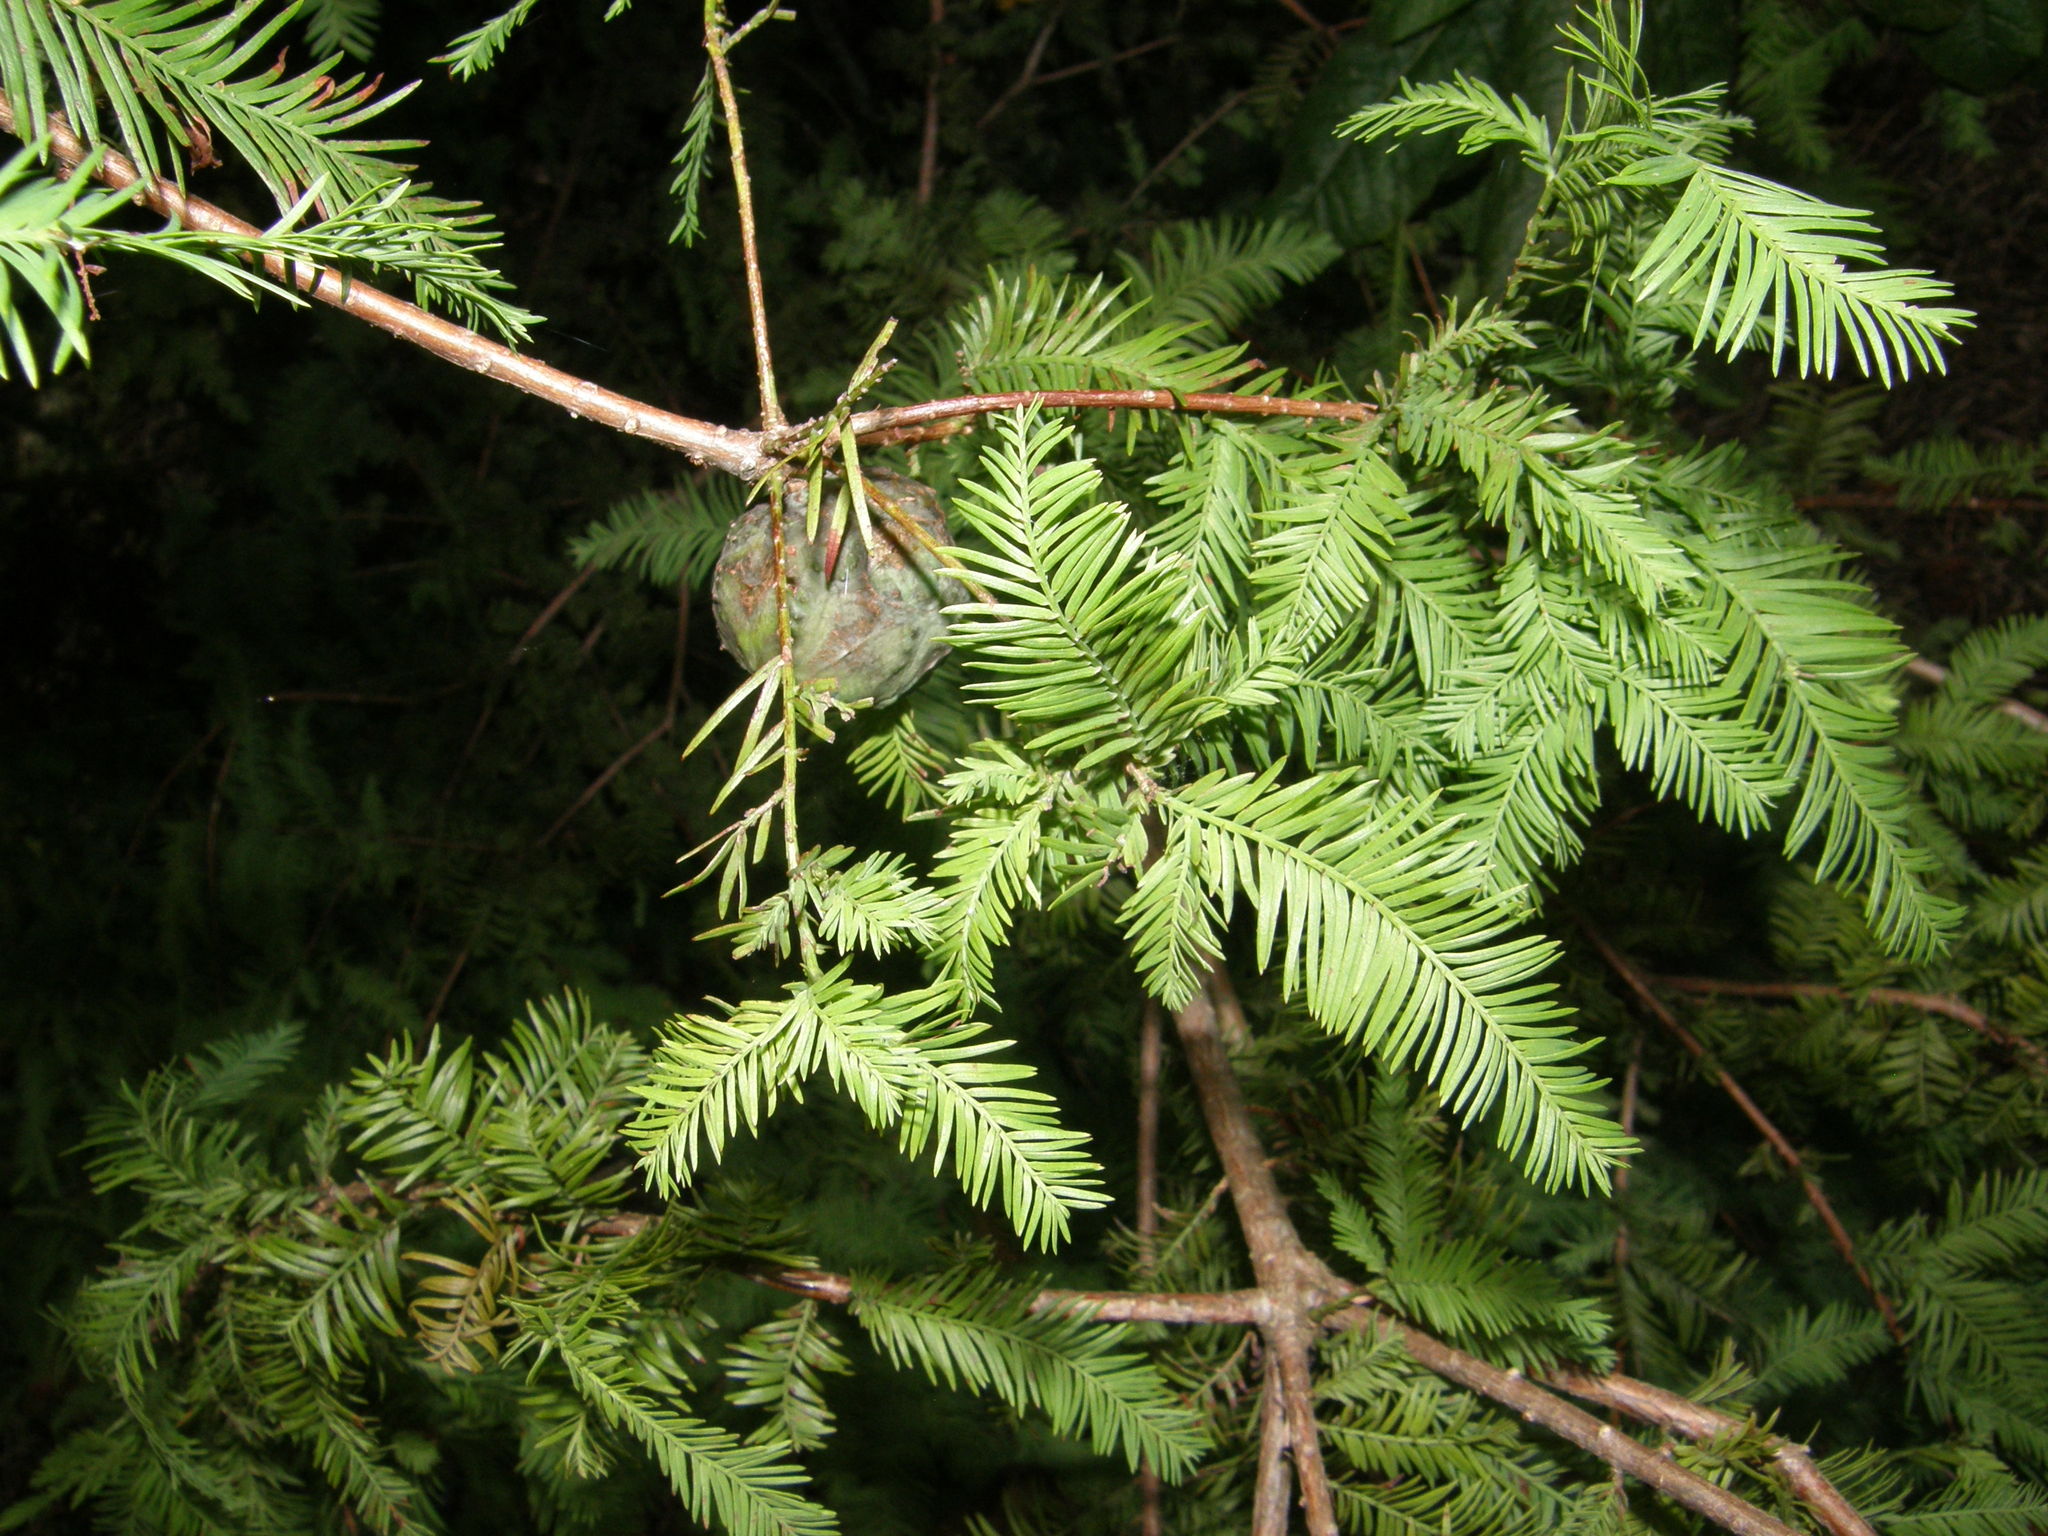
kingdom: Plantae
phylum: Tracheophyta
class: Pinopsida
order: Pinales
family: Cupressaceae
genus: Taxodium
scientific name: Taxodium distichum
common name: Bald cypress
